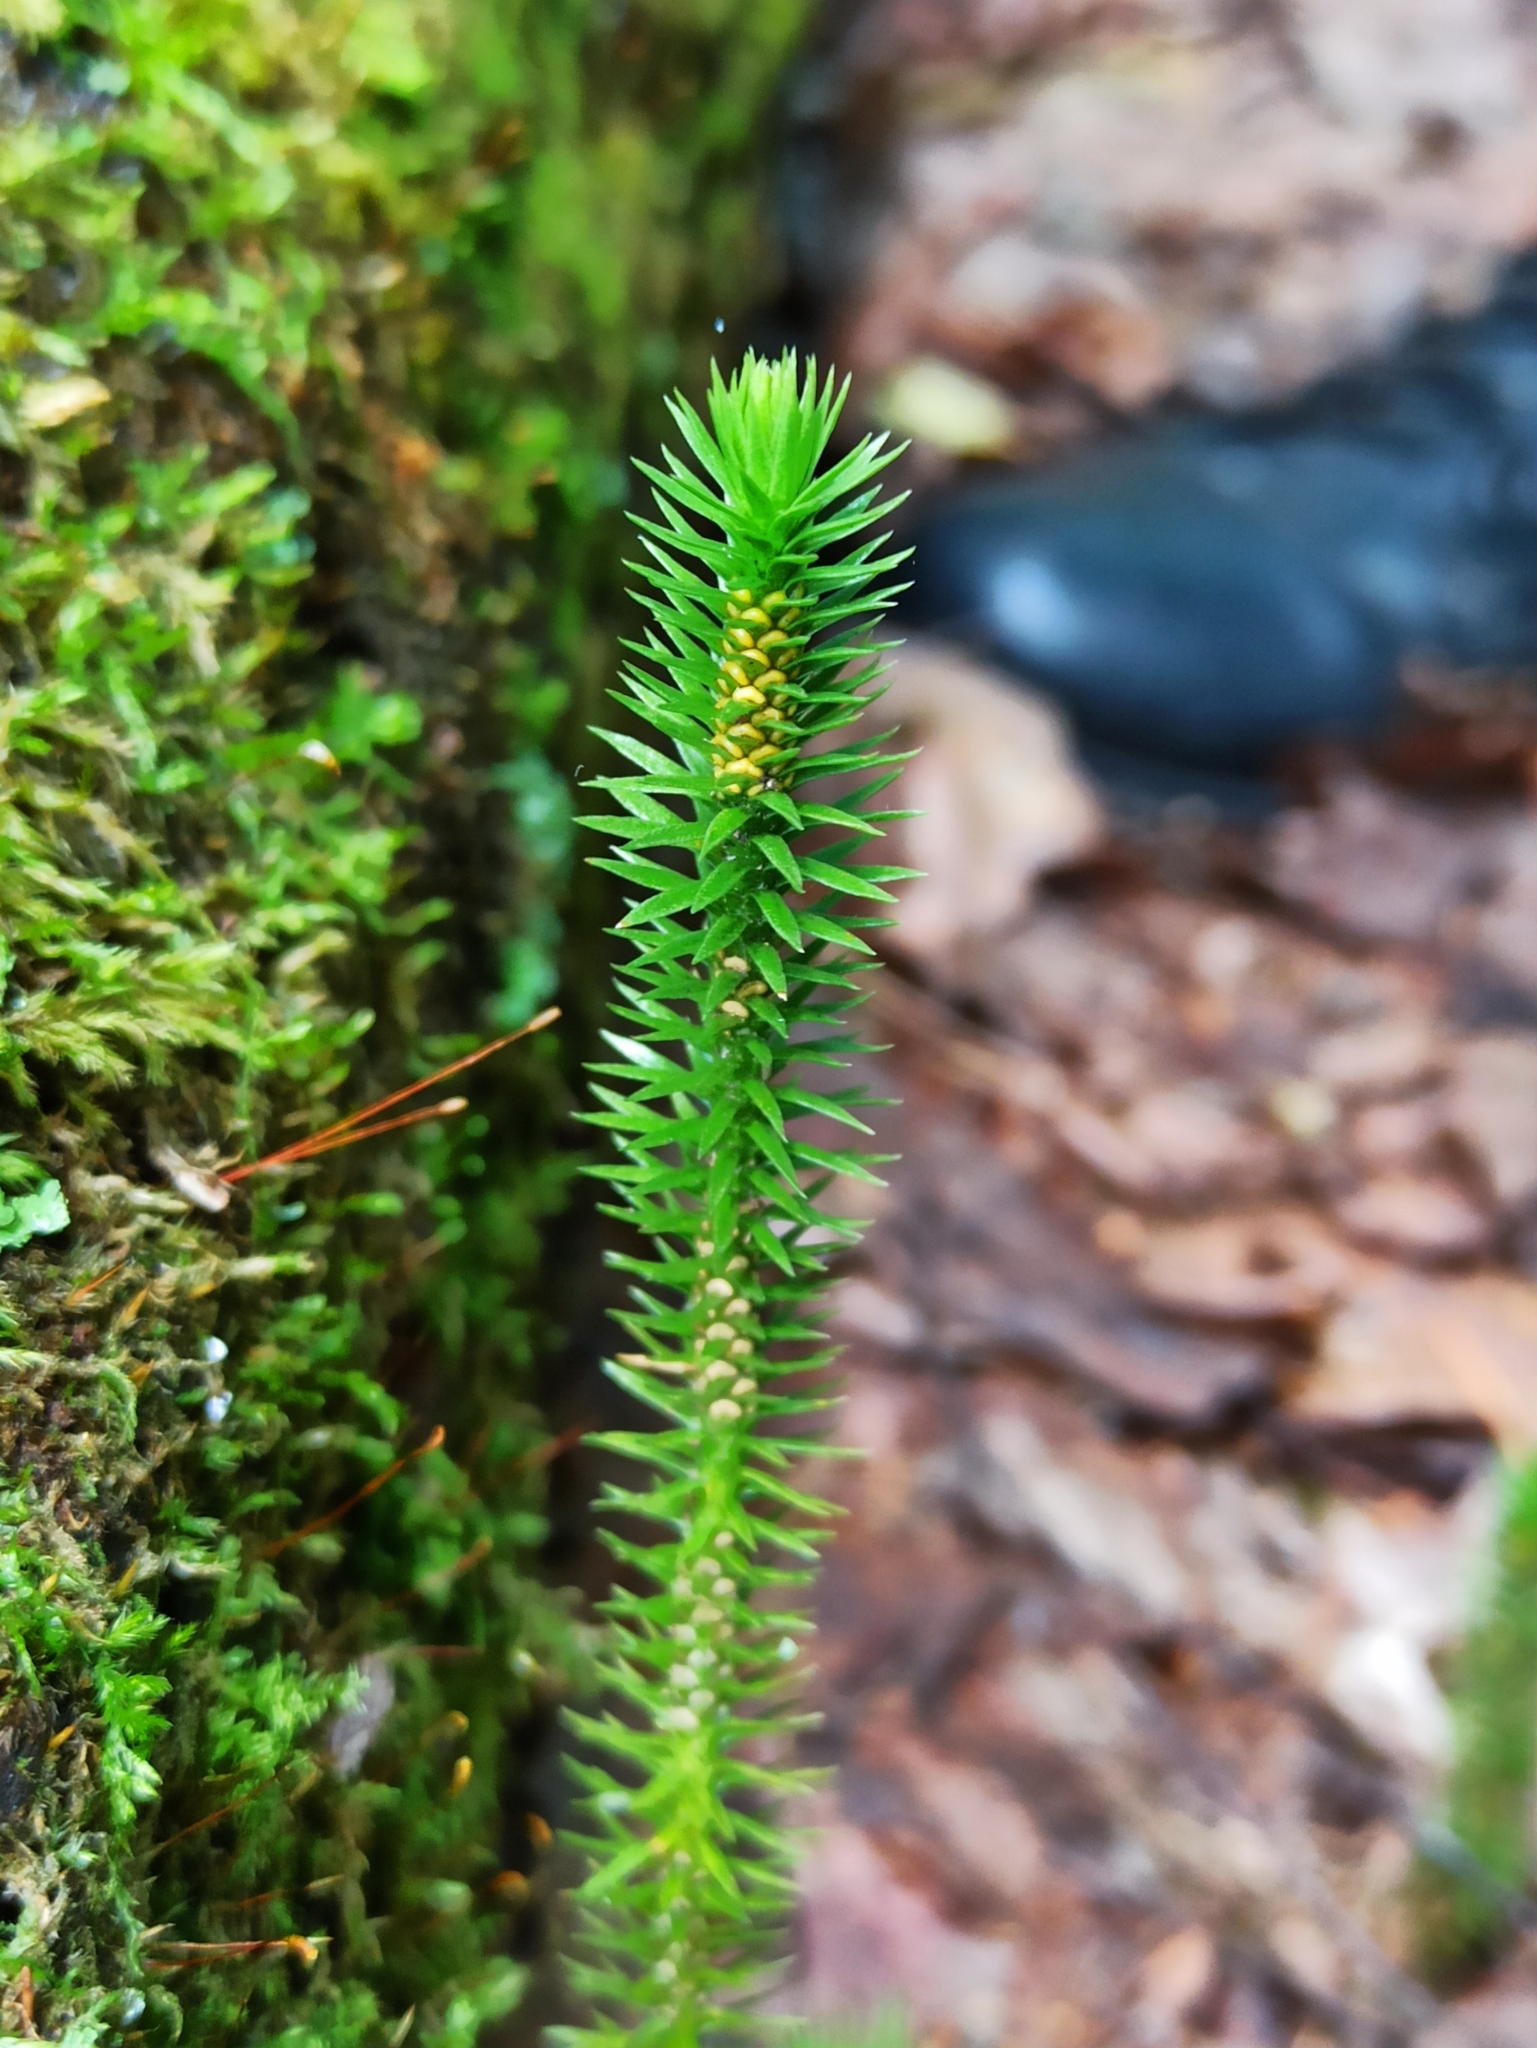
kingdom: Plantae
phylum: Tracheophyta
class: Lycopodiopsida
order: Lycopodiales
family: Lycopodiaceae
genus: Huperzia
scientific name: Huperzia selago
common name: Northern firmoss
